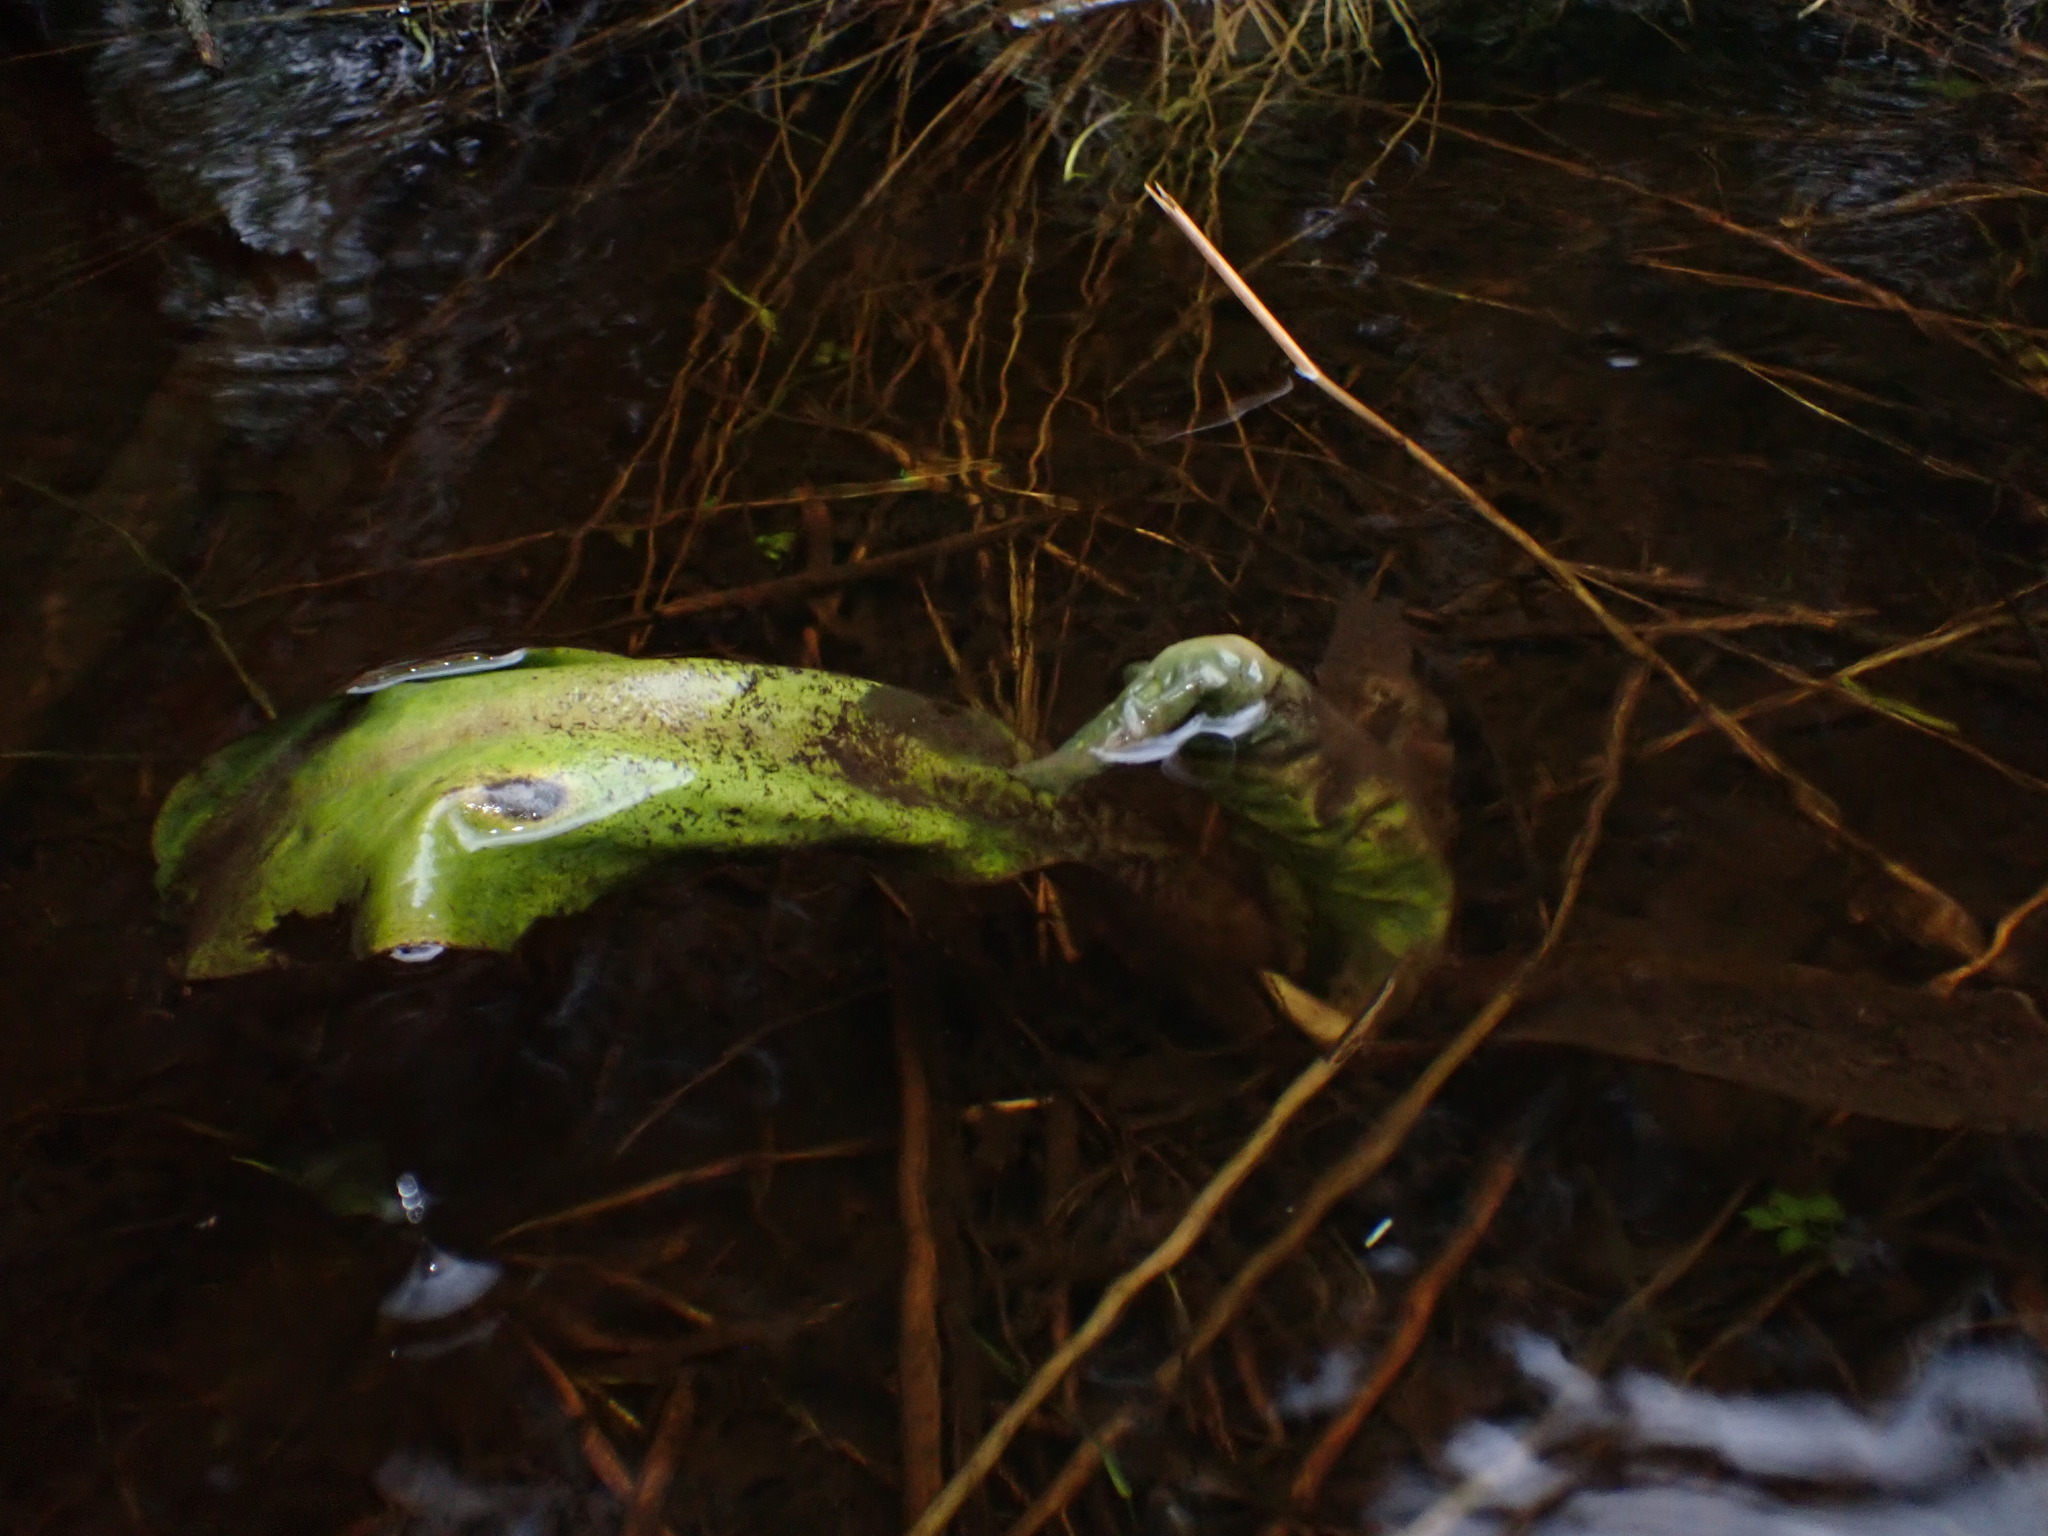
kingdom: Plantae
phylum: Tracheophyta
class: Liliopsida
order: Alismatales
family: Araceae
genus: Lysichiton
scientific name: Lysichiton americanus
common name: American skunk cabbage
